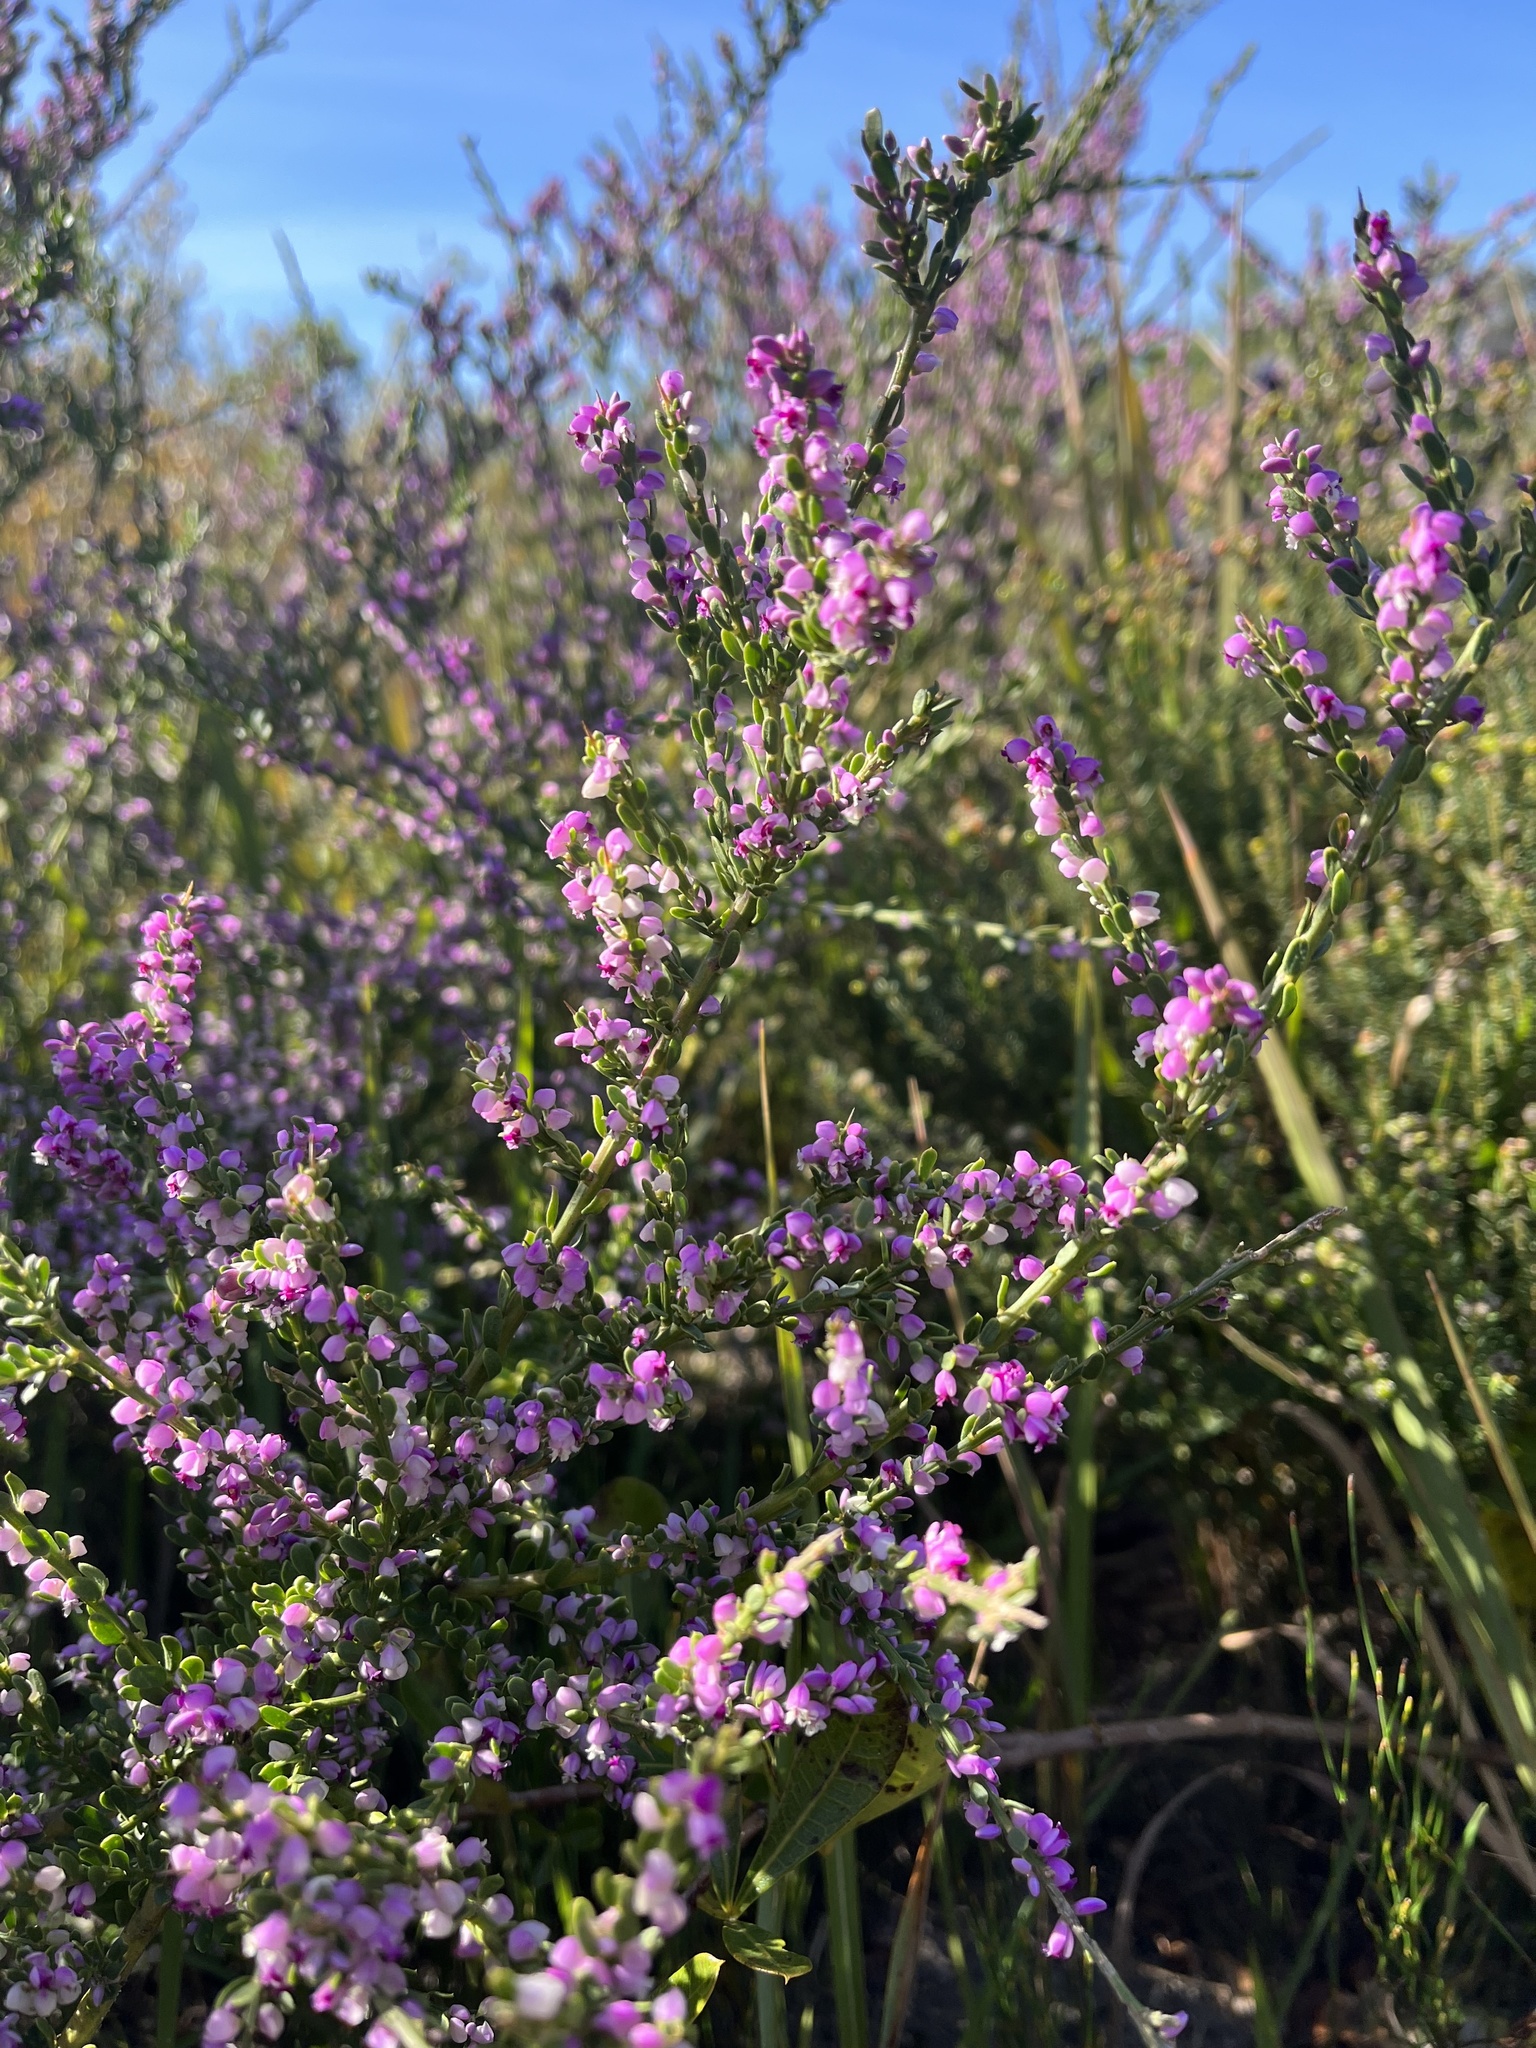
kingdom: Plantae
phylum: Tracheophyta
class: Magnoliopsida
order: Fabales
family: Polygalaceae
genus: Muraltia
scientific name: Muraltia spinosa
